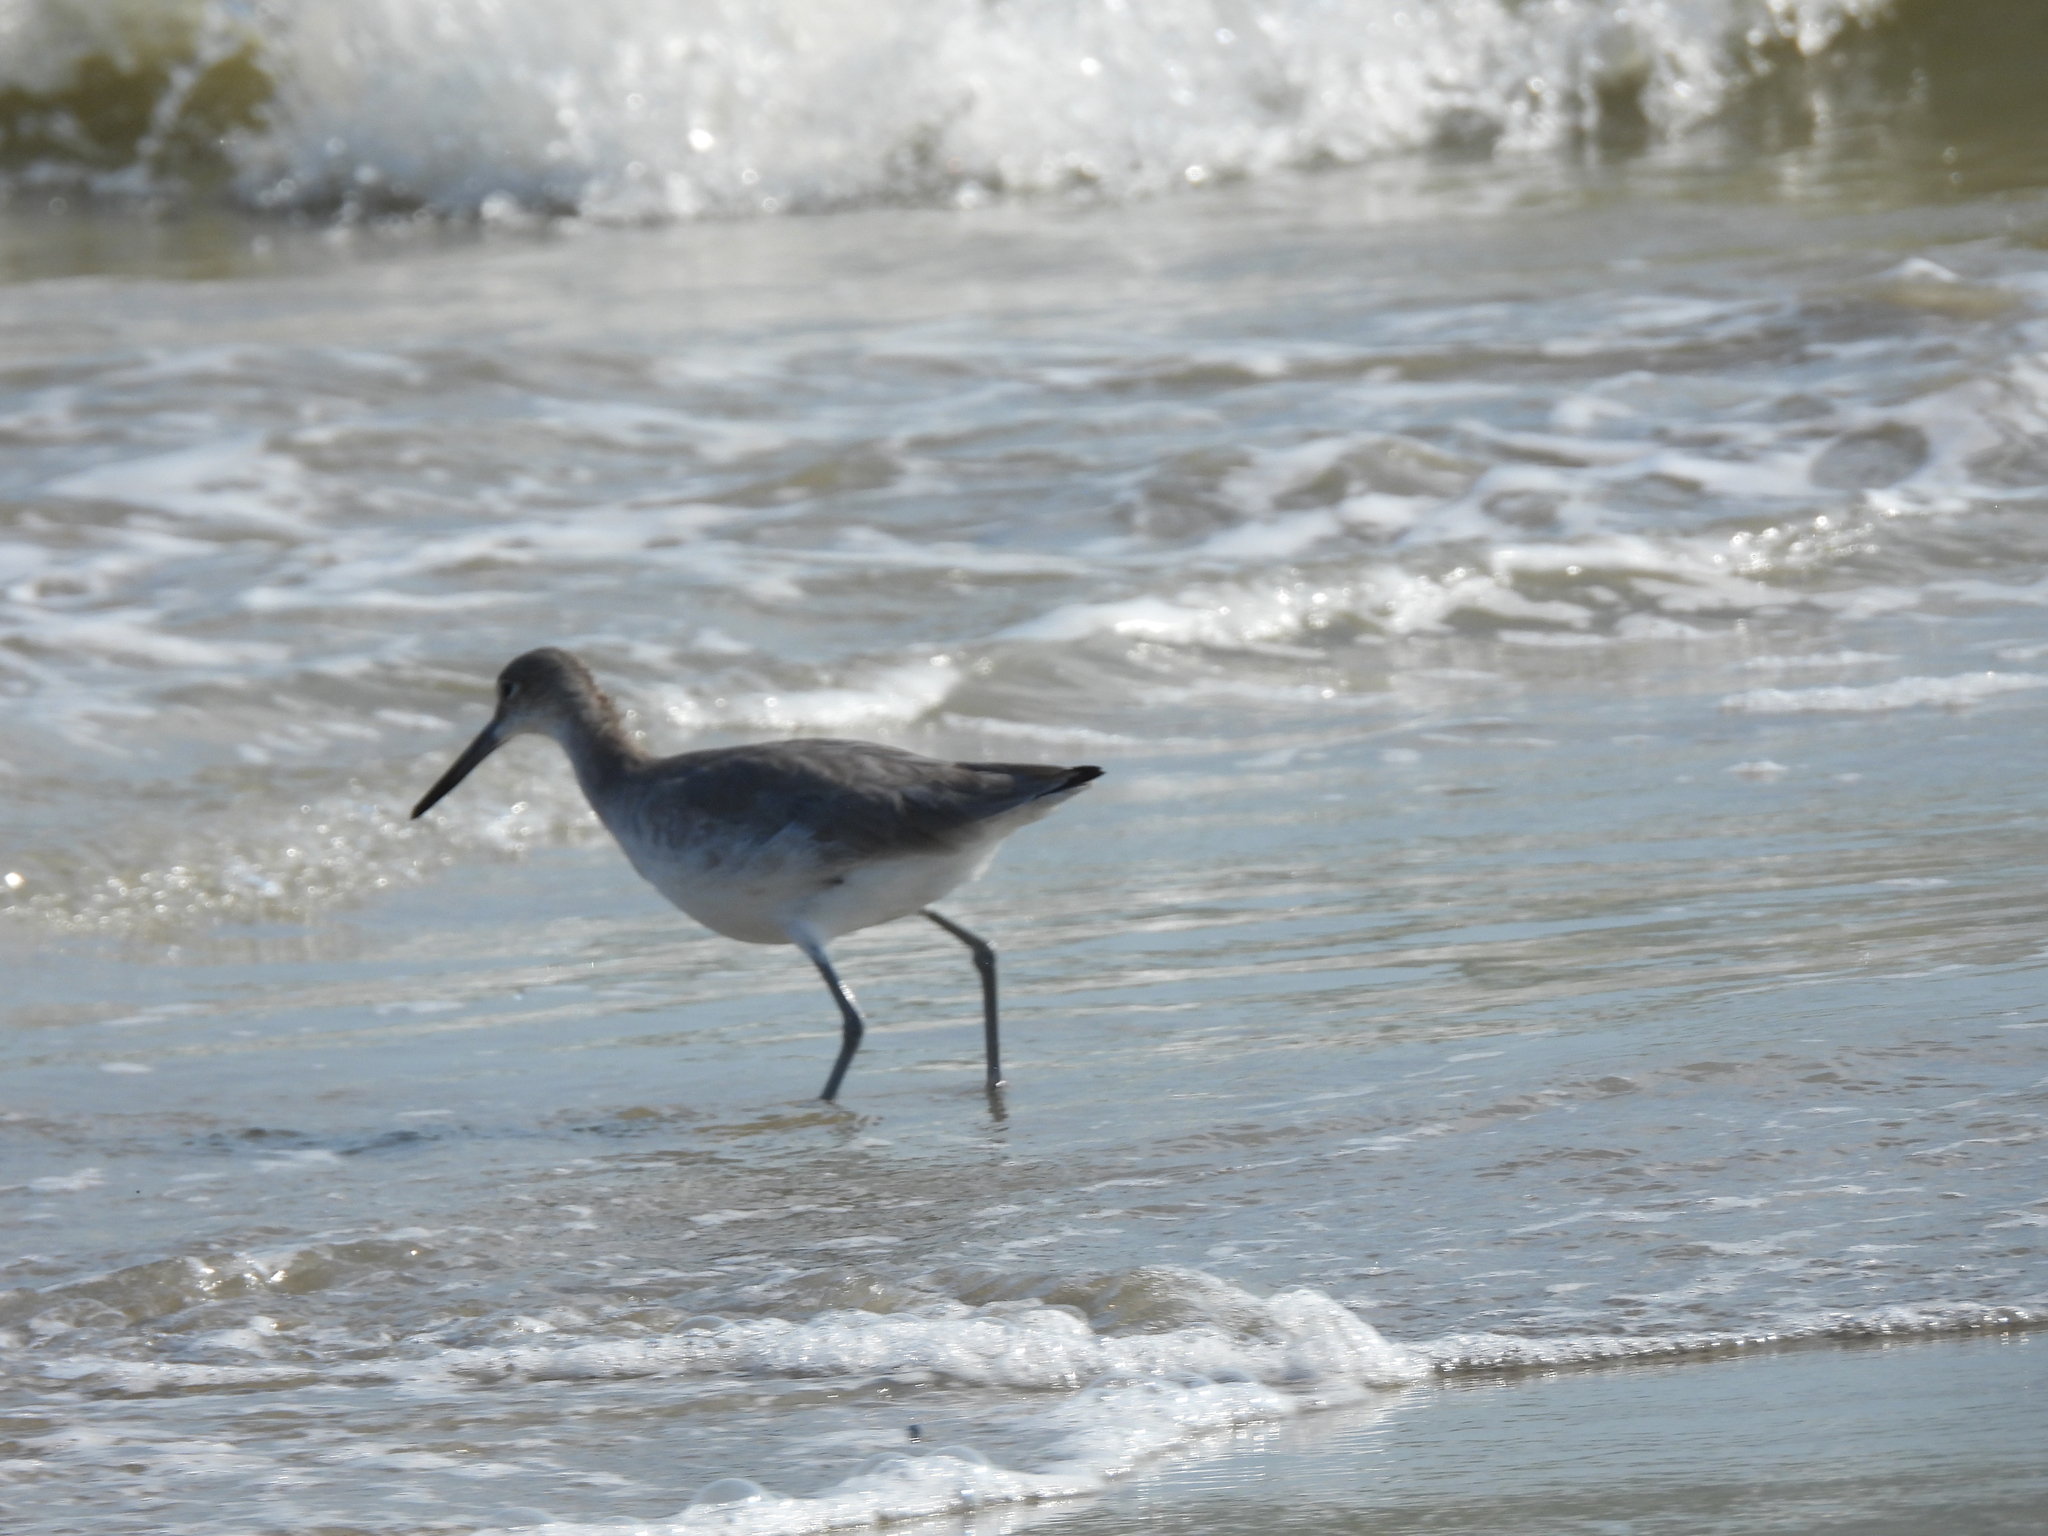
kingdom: Animalia
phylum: Chordata
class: Aves
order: Charadriiformes
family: Scolopacidae
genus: Tringa
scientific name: Tringa semipalmata
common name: Willet
